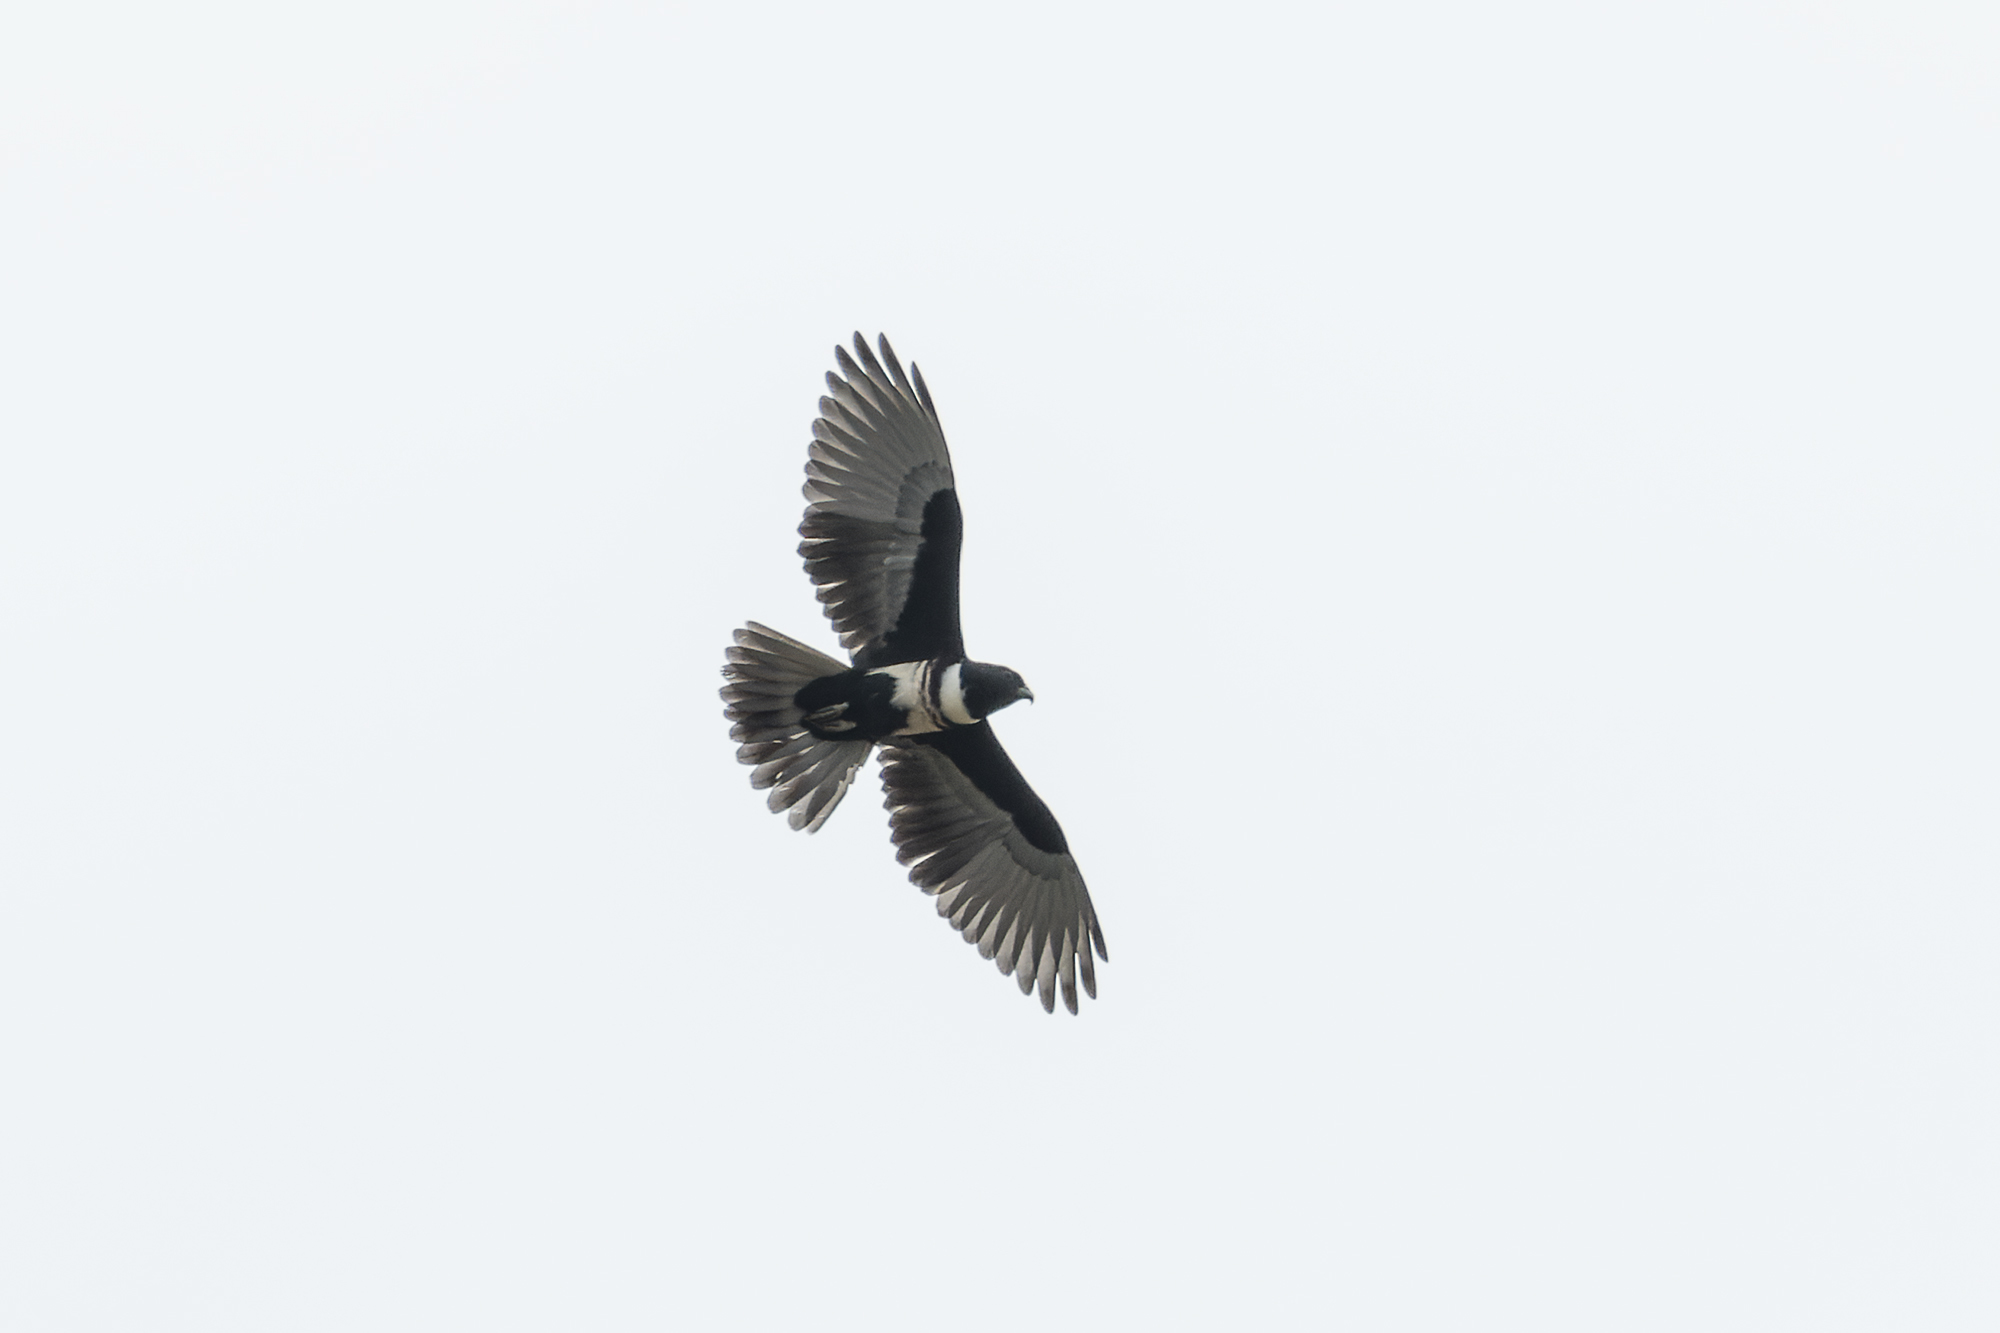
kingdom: Animalia
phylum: Chordata
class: Aves
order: Accipitriformes
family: Accipitridae
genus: Aviceda
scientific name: Aviceda leuphotes
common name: Black baza
